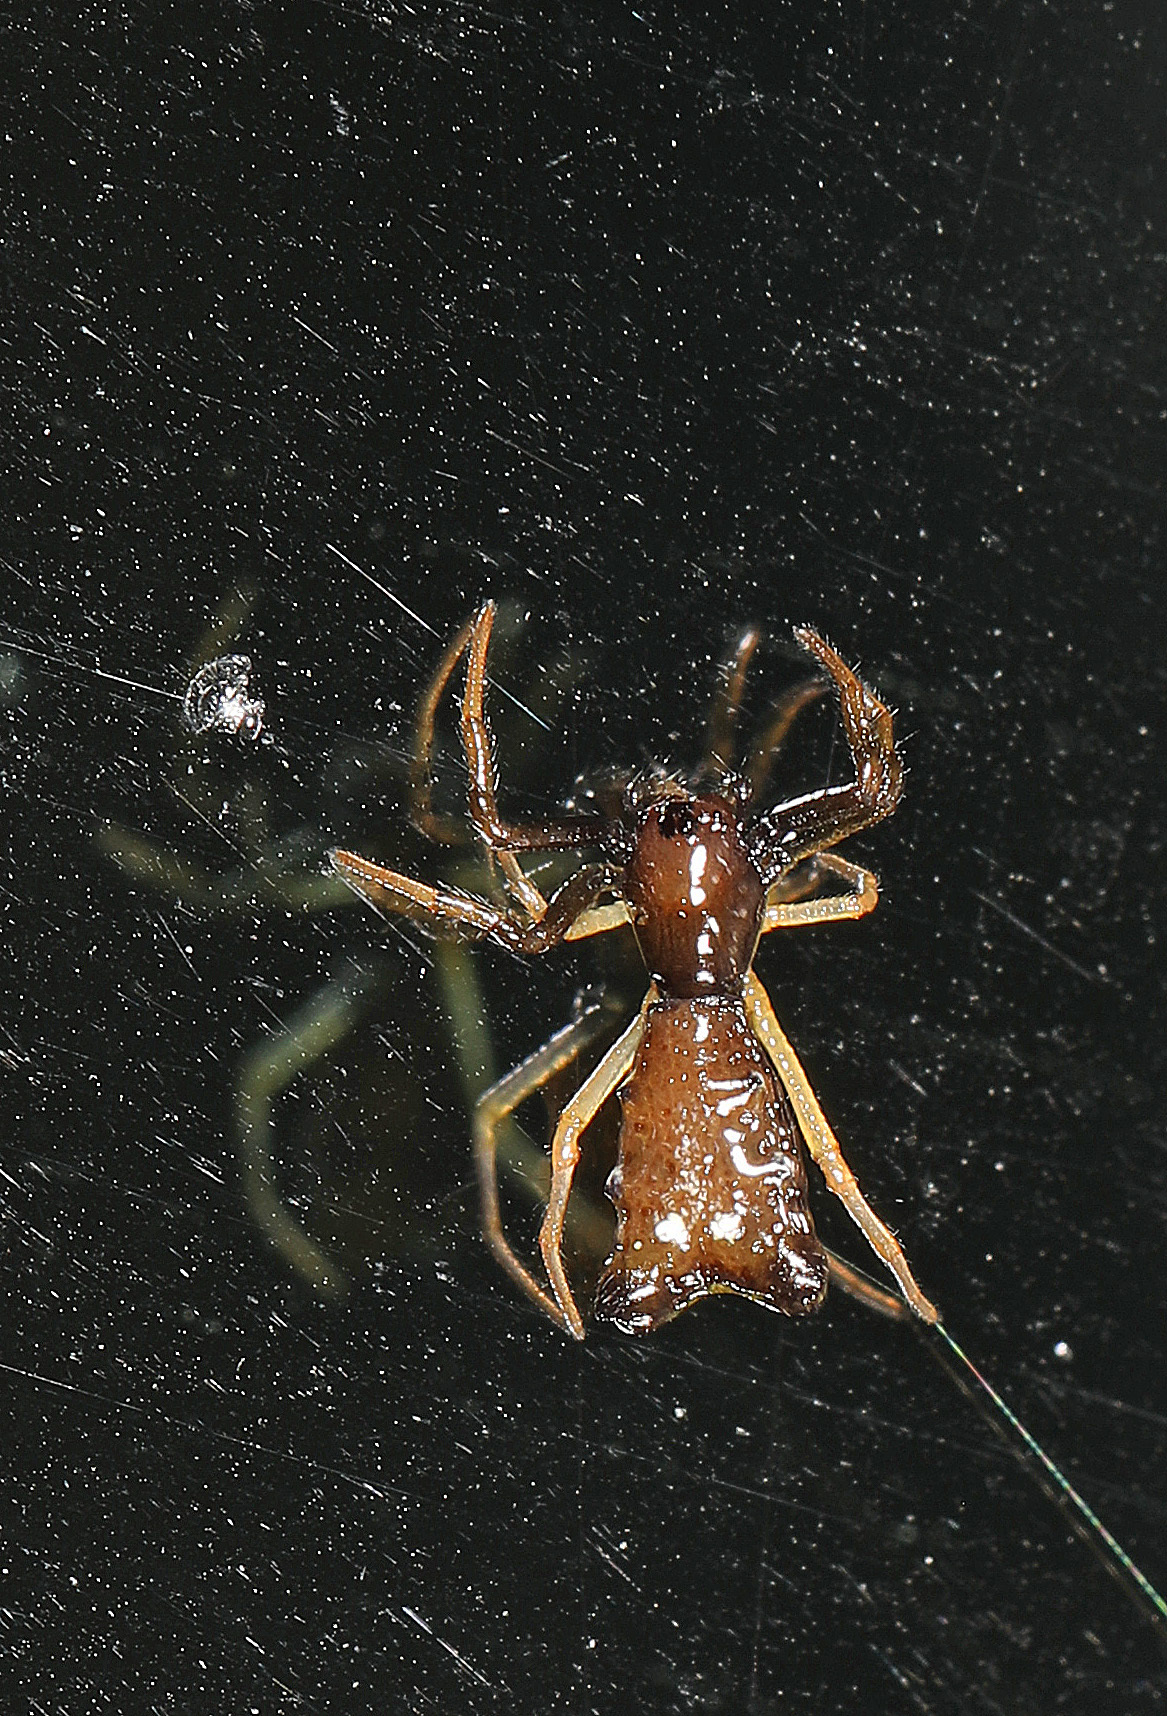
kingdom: Animalia
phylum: Arthropoda
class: Arachnida
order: Araneae
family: Araneidae
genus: Micrathena
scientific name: Micrathena sagittata
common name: Orb weavers
